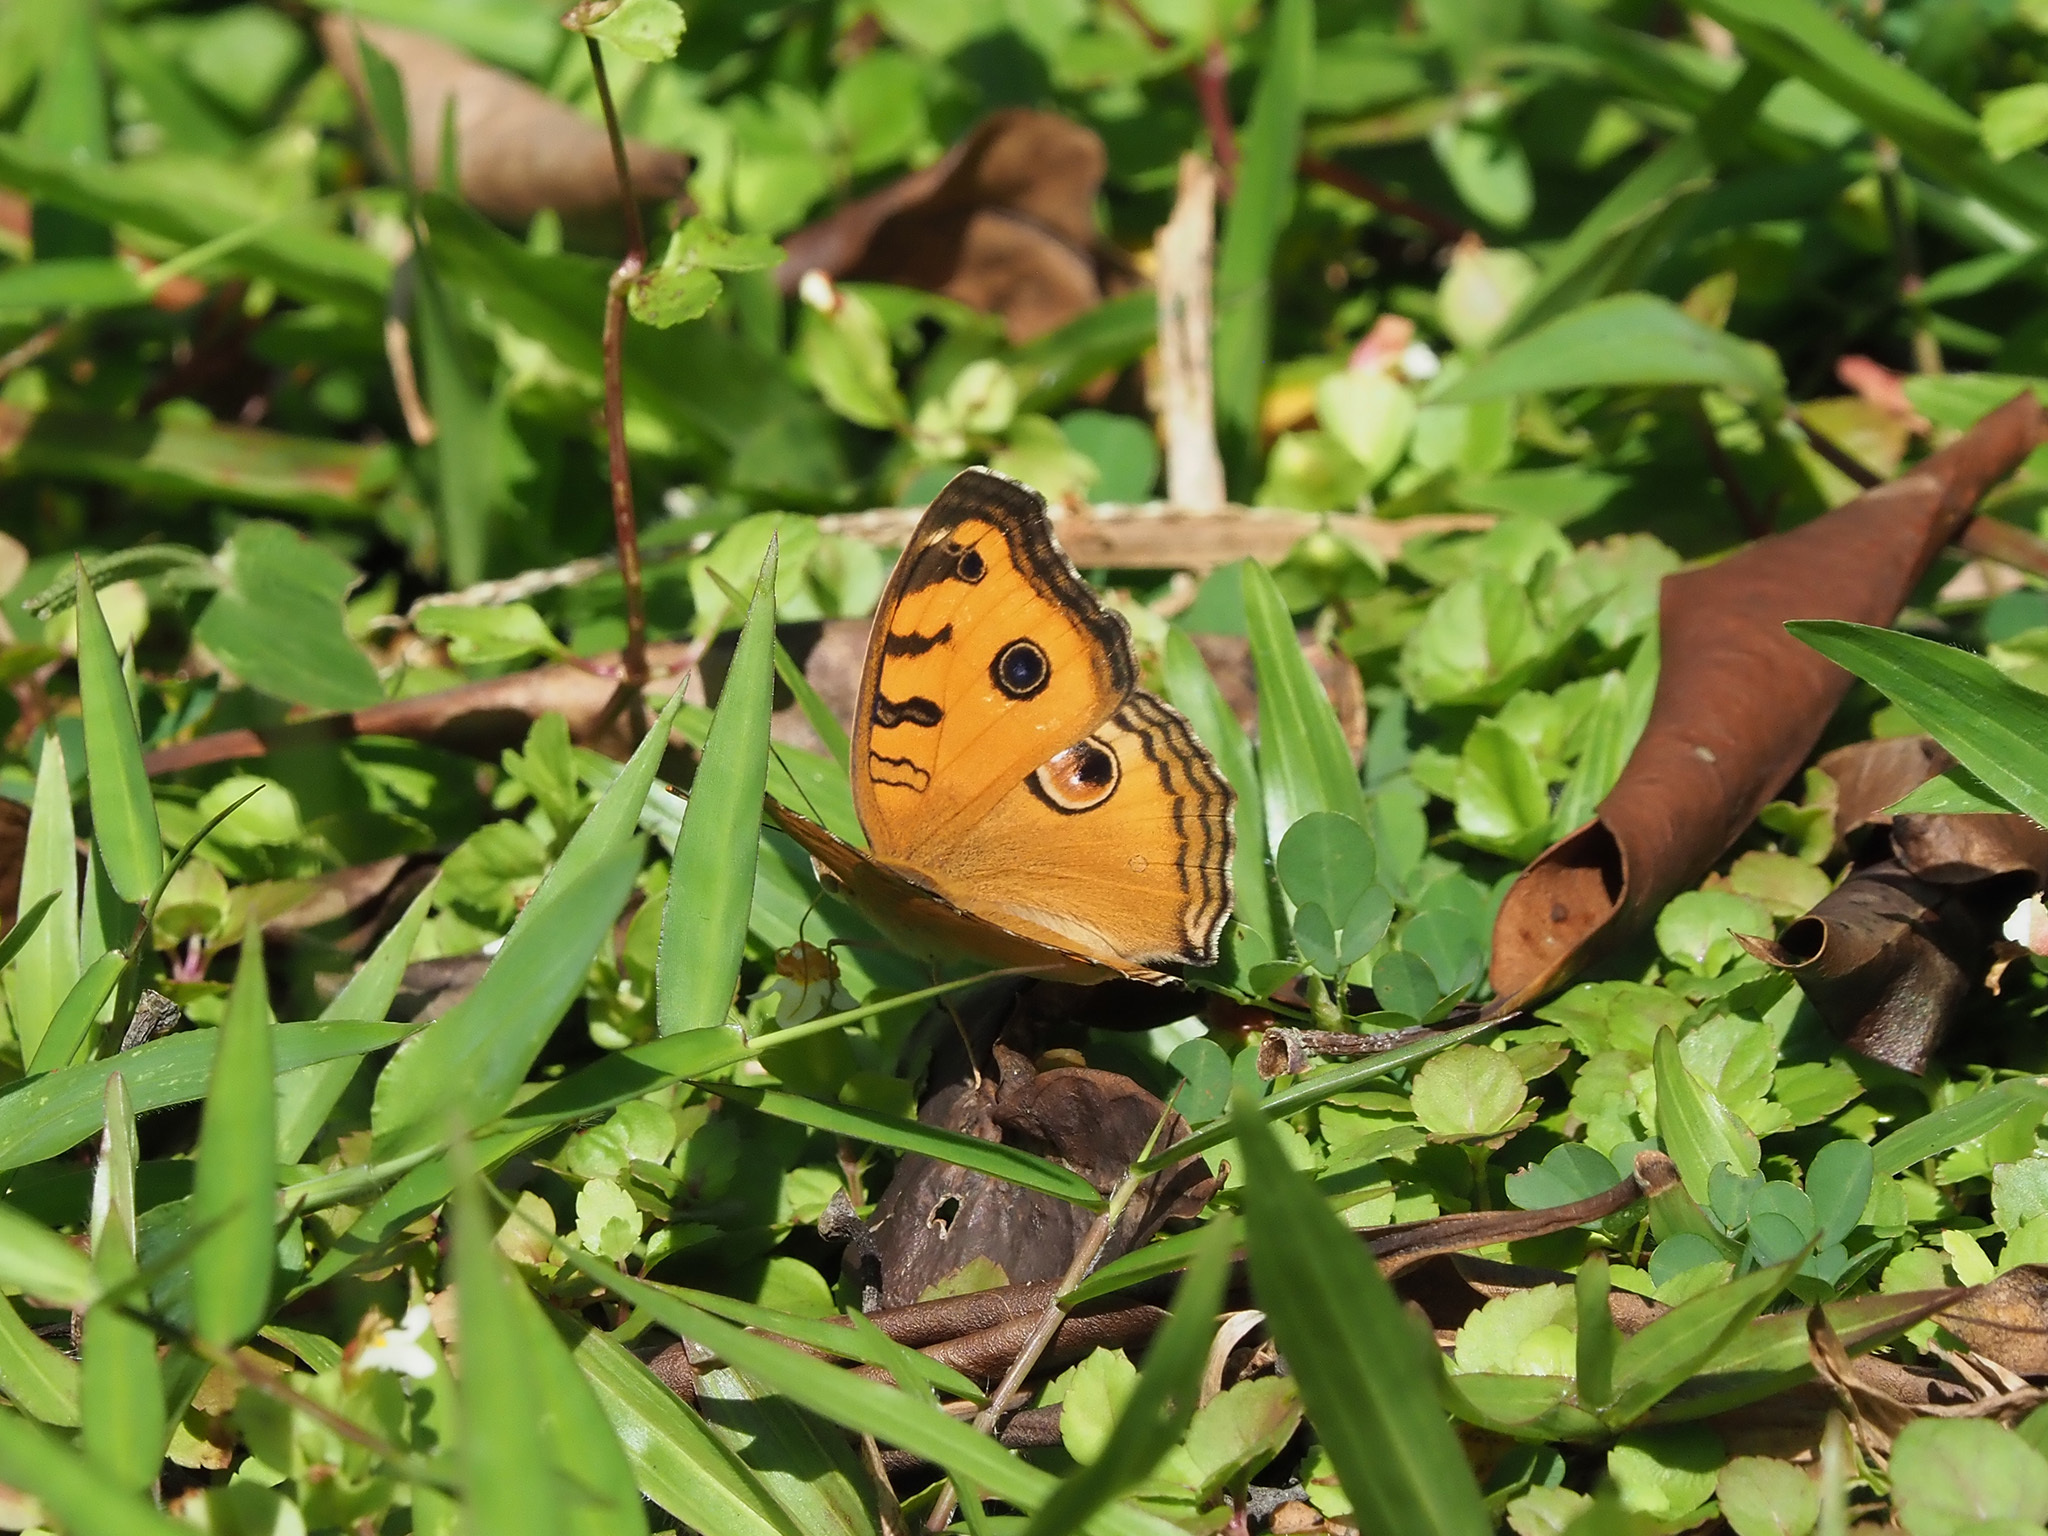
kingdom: Animalia
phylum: Arthropoda
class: Insecta
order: Lepidoptera
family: Nymphalidae
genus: Junonia
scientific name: Junonia almana
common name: Peacock pansy
